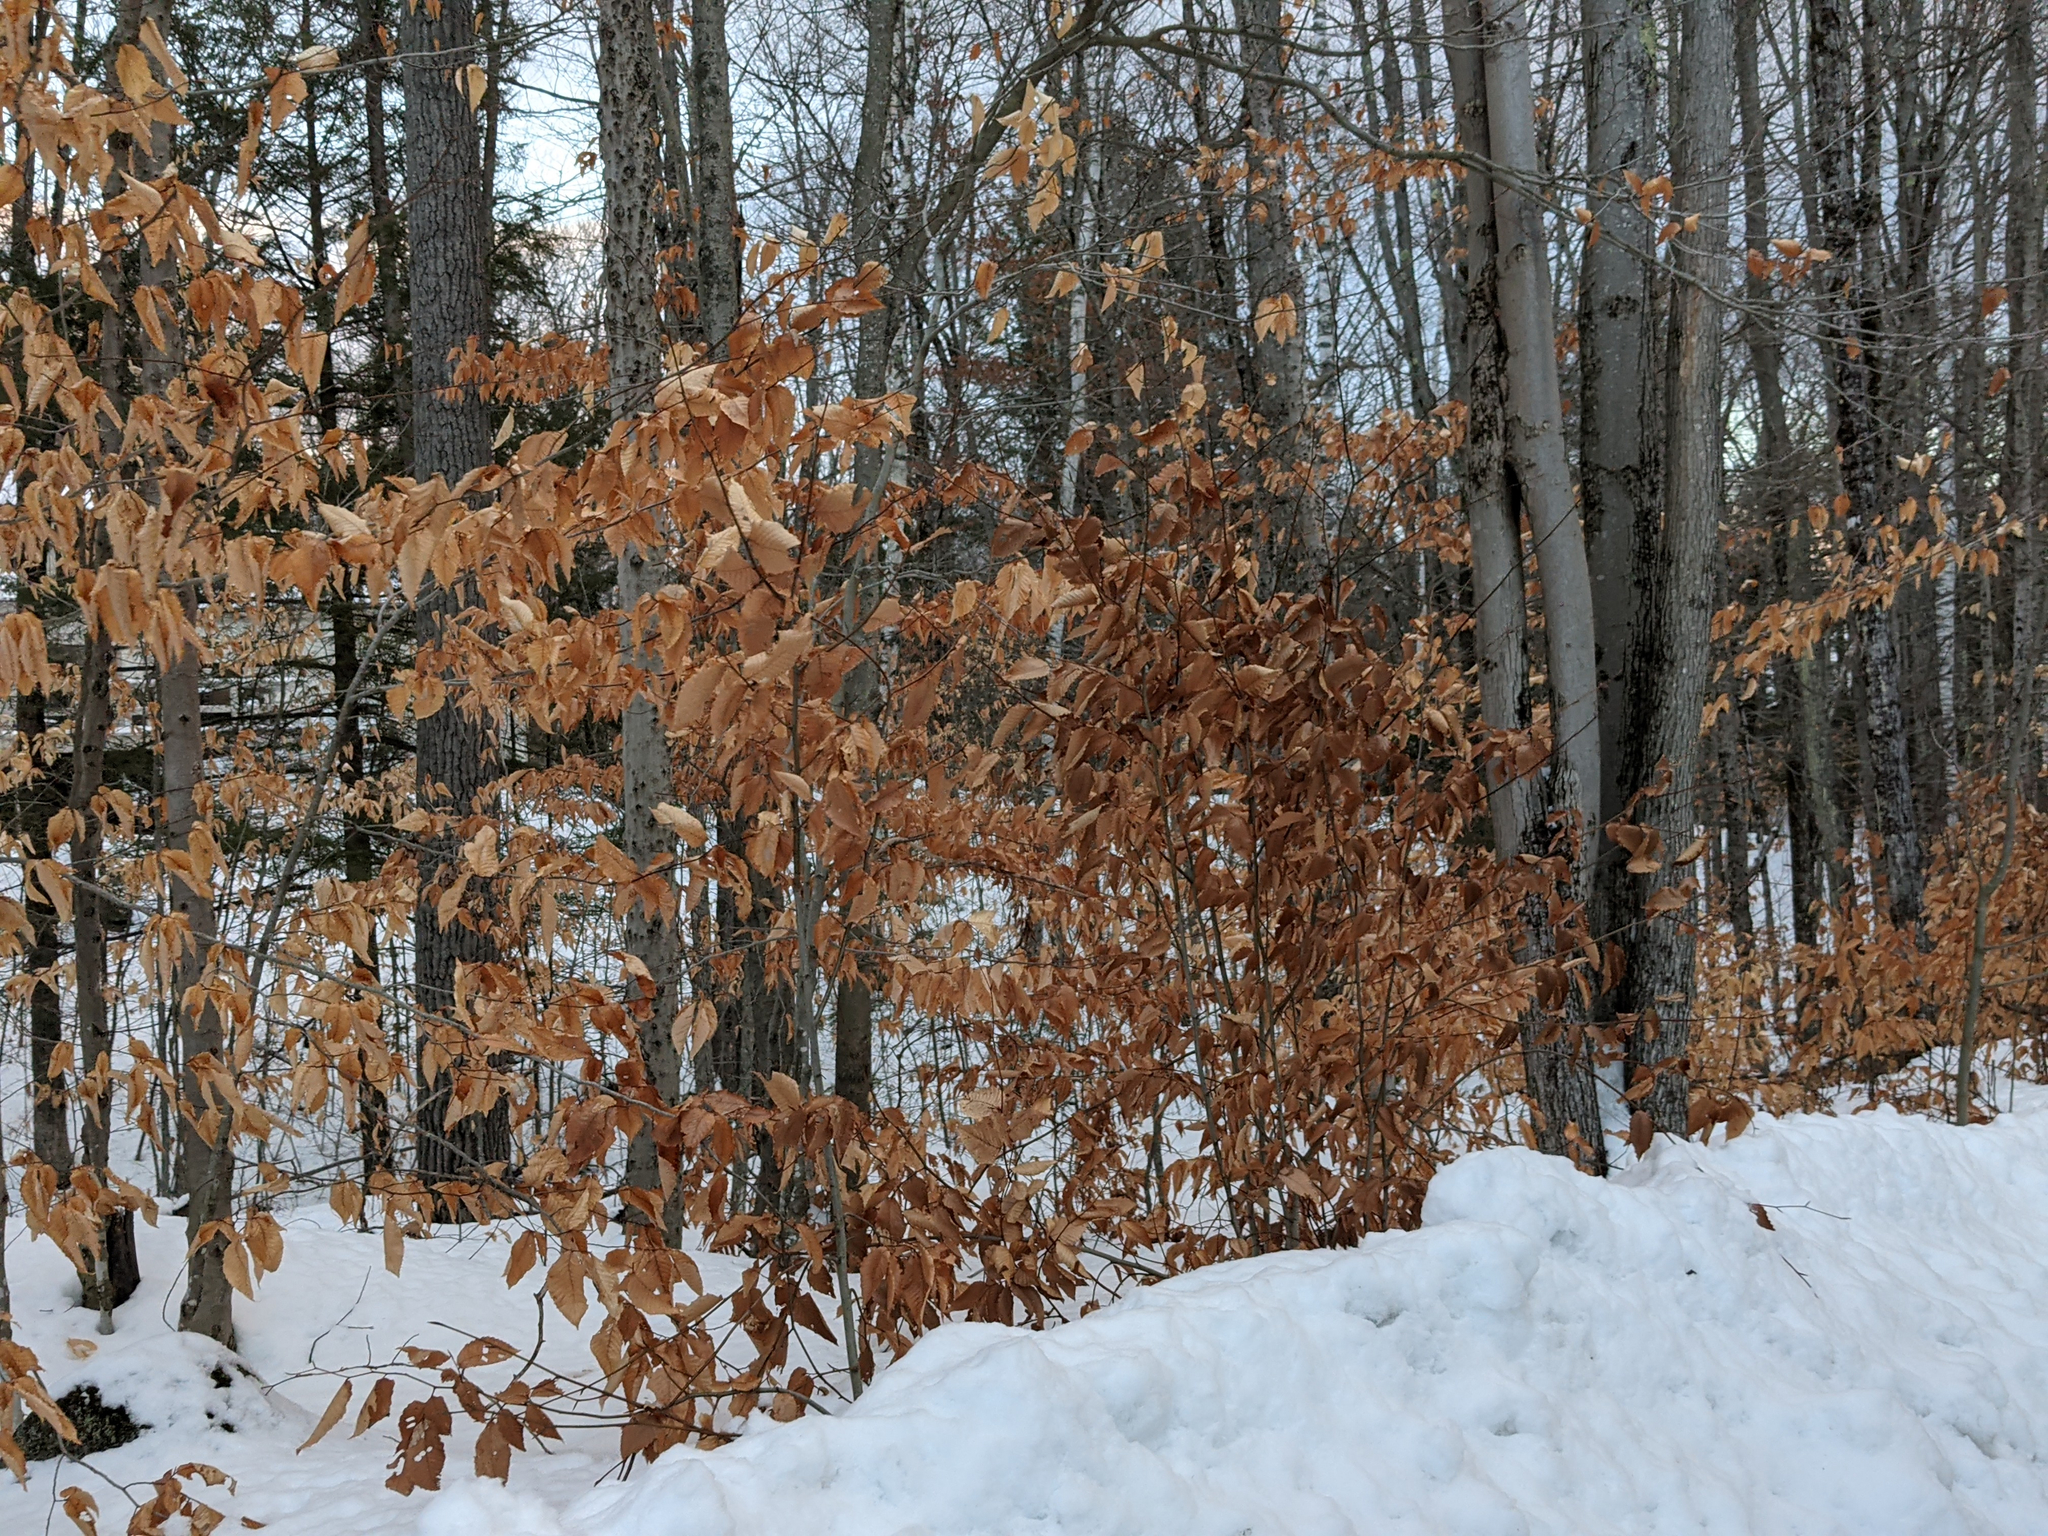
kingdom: Plantae
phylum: Tracheophyta
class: Magnoliopsida
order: Fagales
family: Fagaceae
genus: Fagus
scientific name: Fagus grandifolia
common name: American beech
